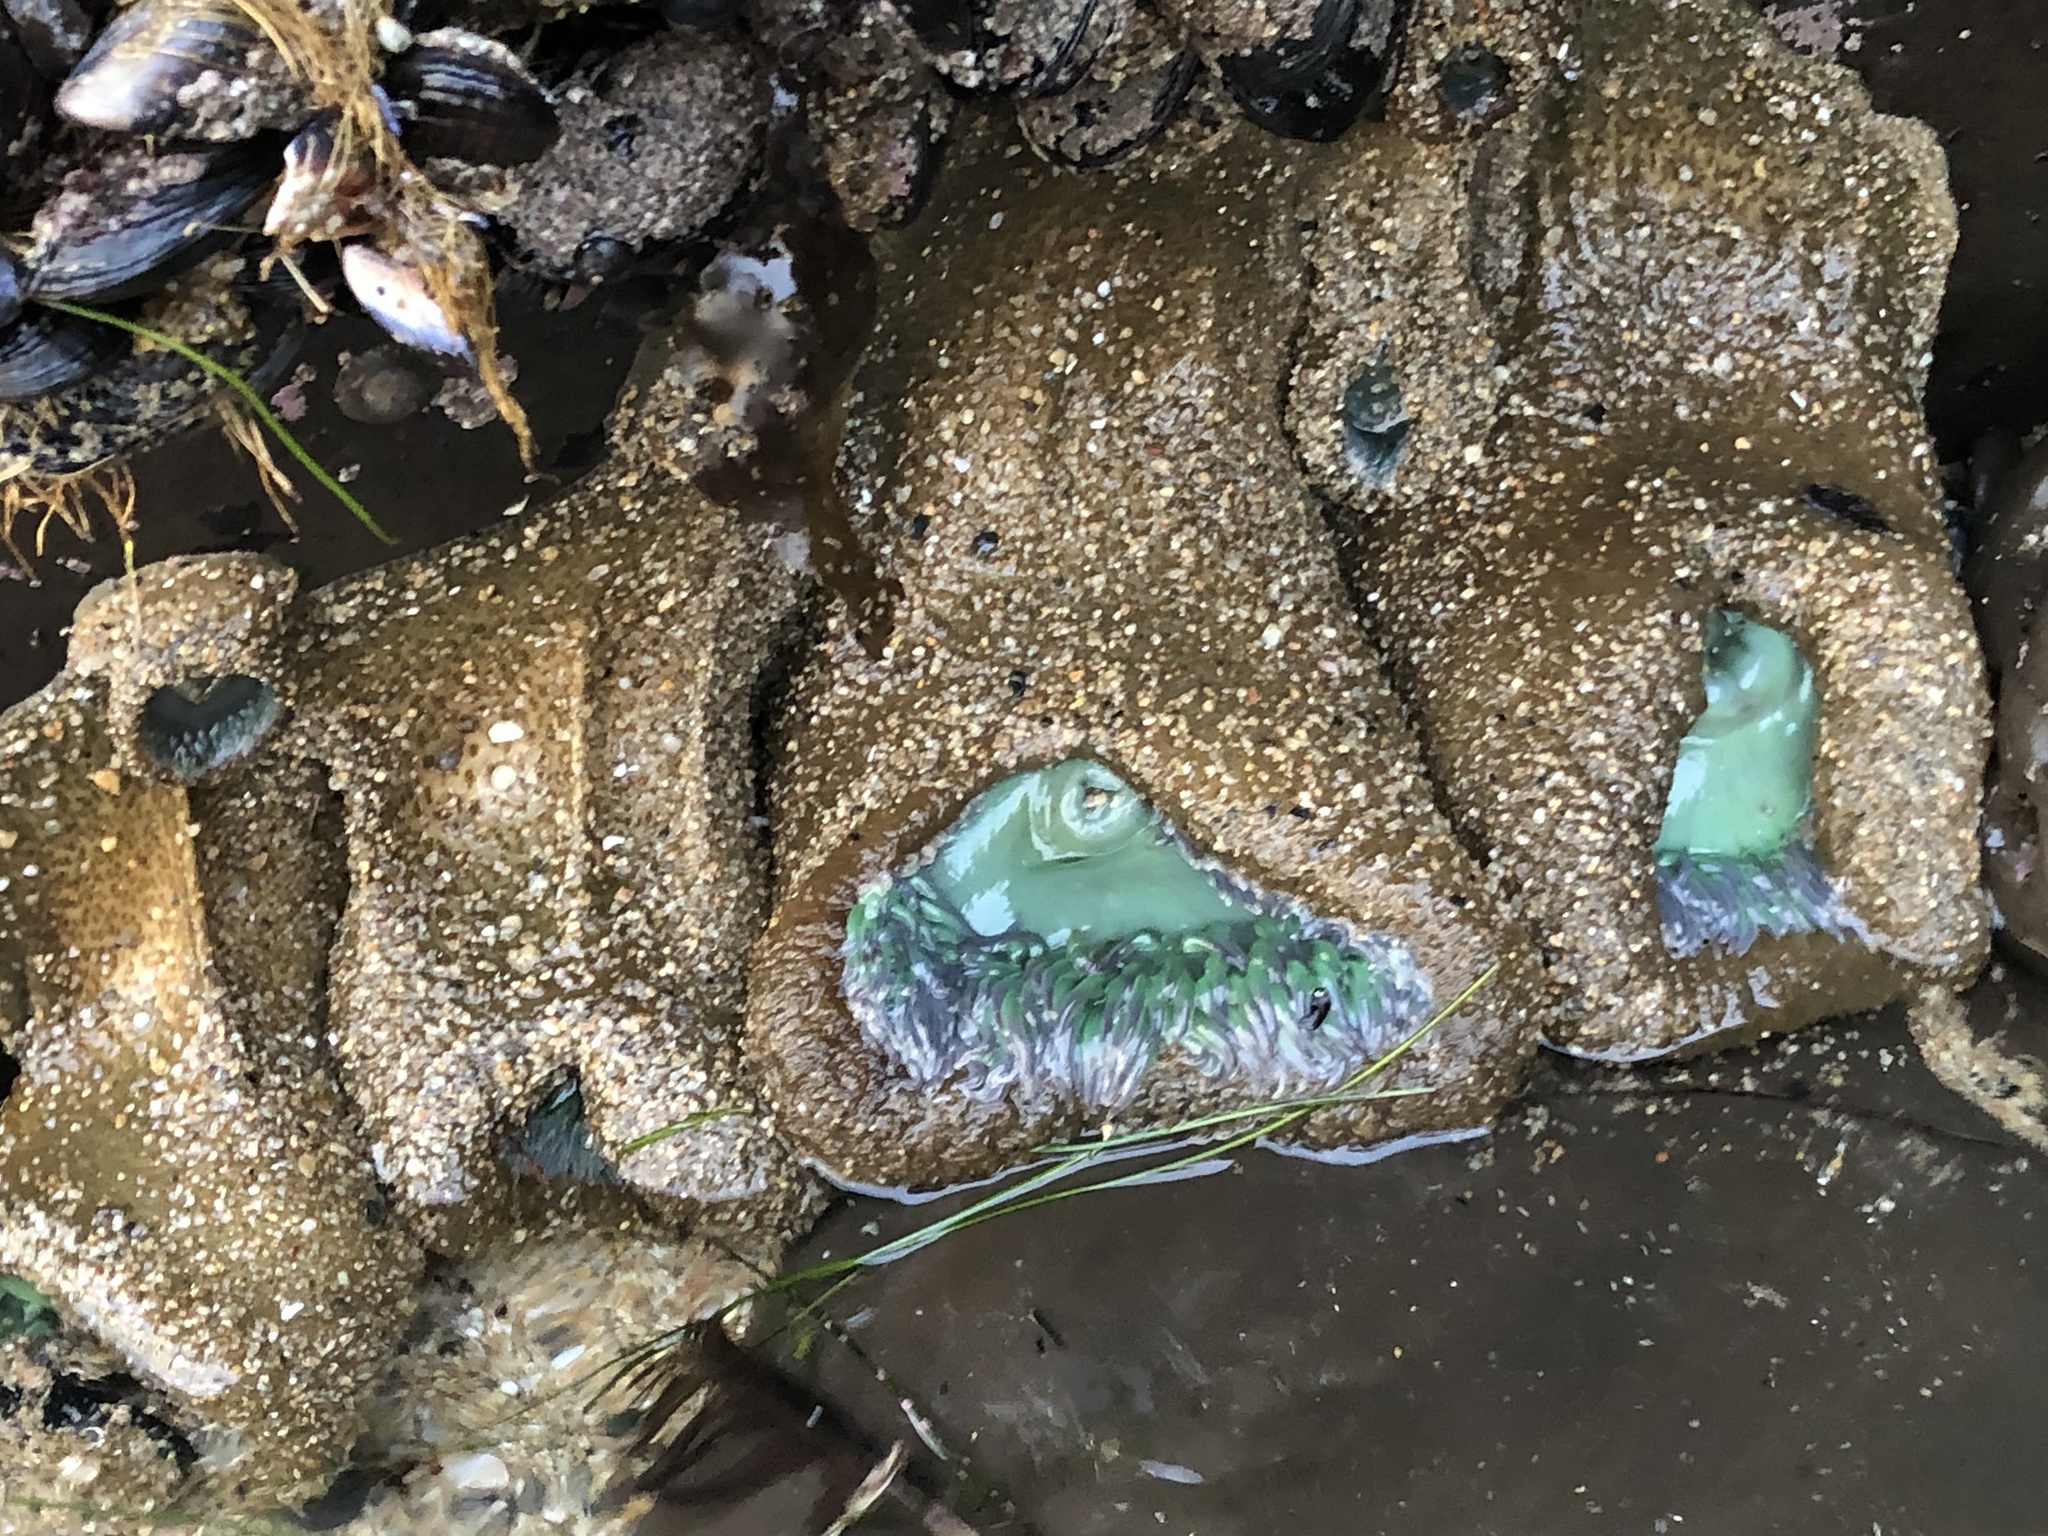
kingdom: Animalia
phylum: Cnidaria
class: Anthozoa
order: Actiniaria
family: Actiniidae
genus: Anthopleura
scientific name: Anthopleura xanthogrammica
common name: Giant green anemone
